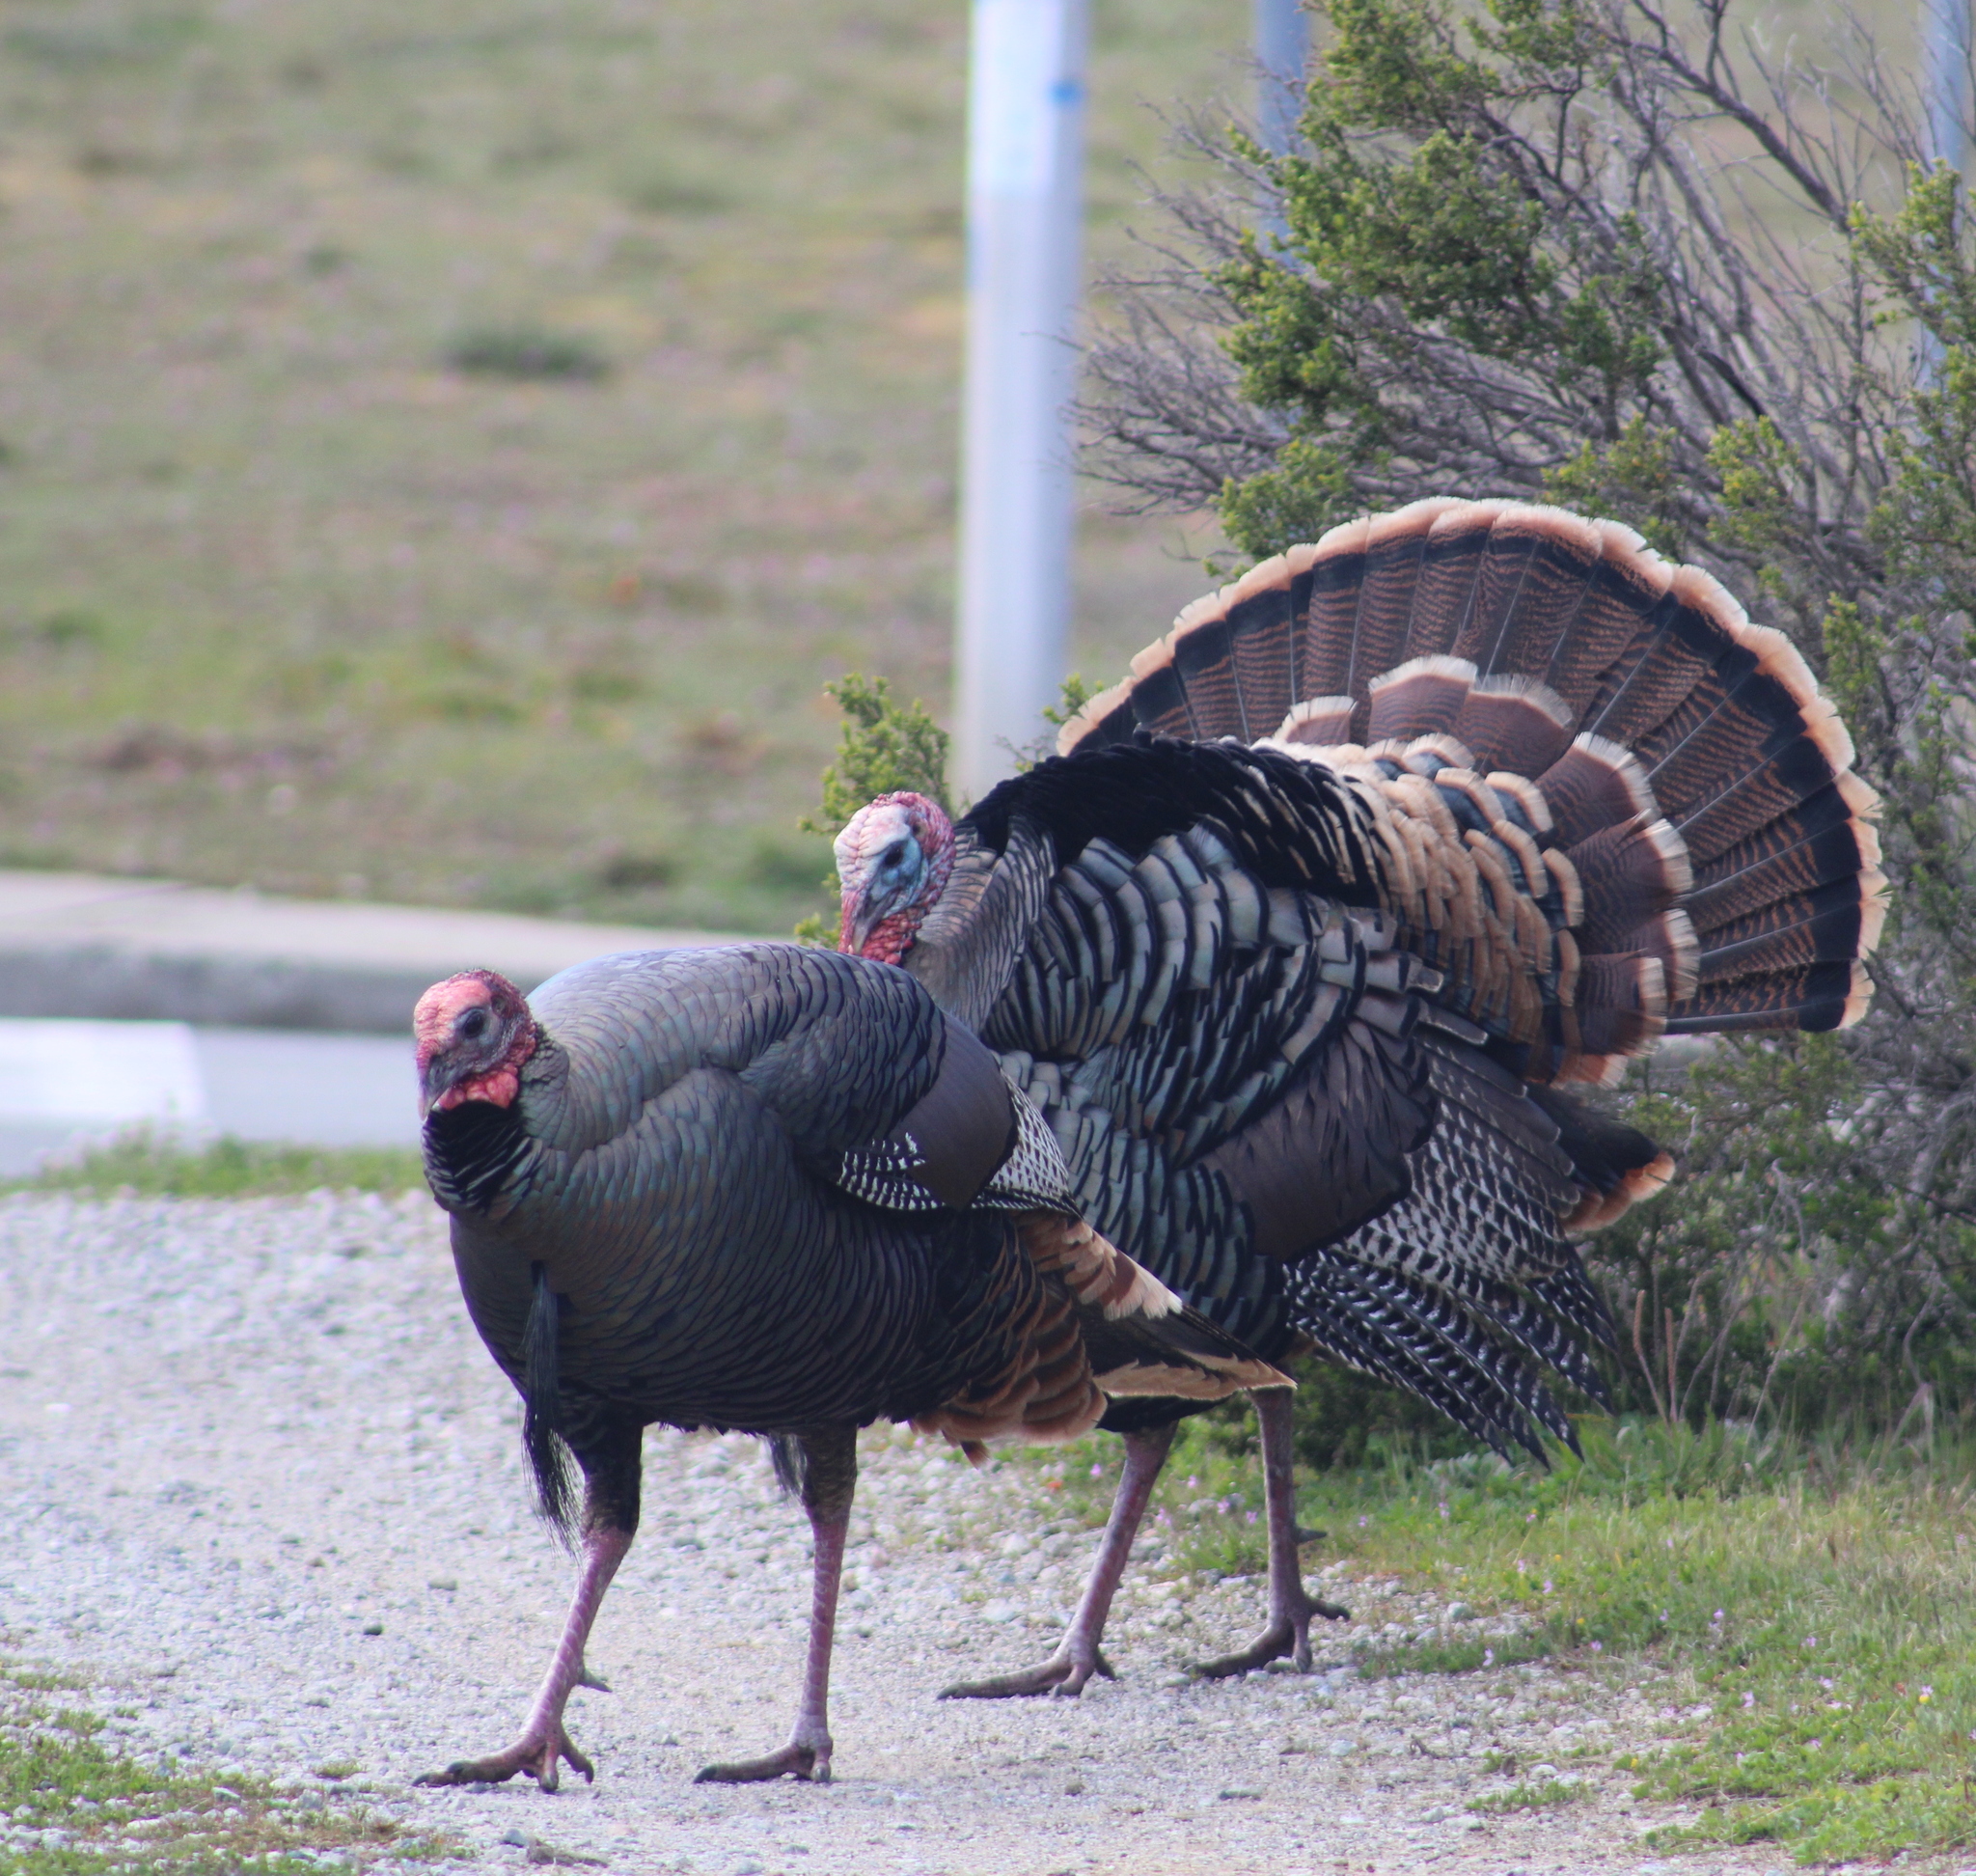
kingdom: Animalia
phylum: Chordata
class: Aves
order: Galliformes
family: Phasianidae
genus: Meleagris
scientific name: Meleagris gallopavo
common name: Wild turkey
